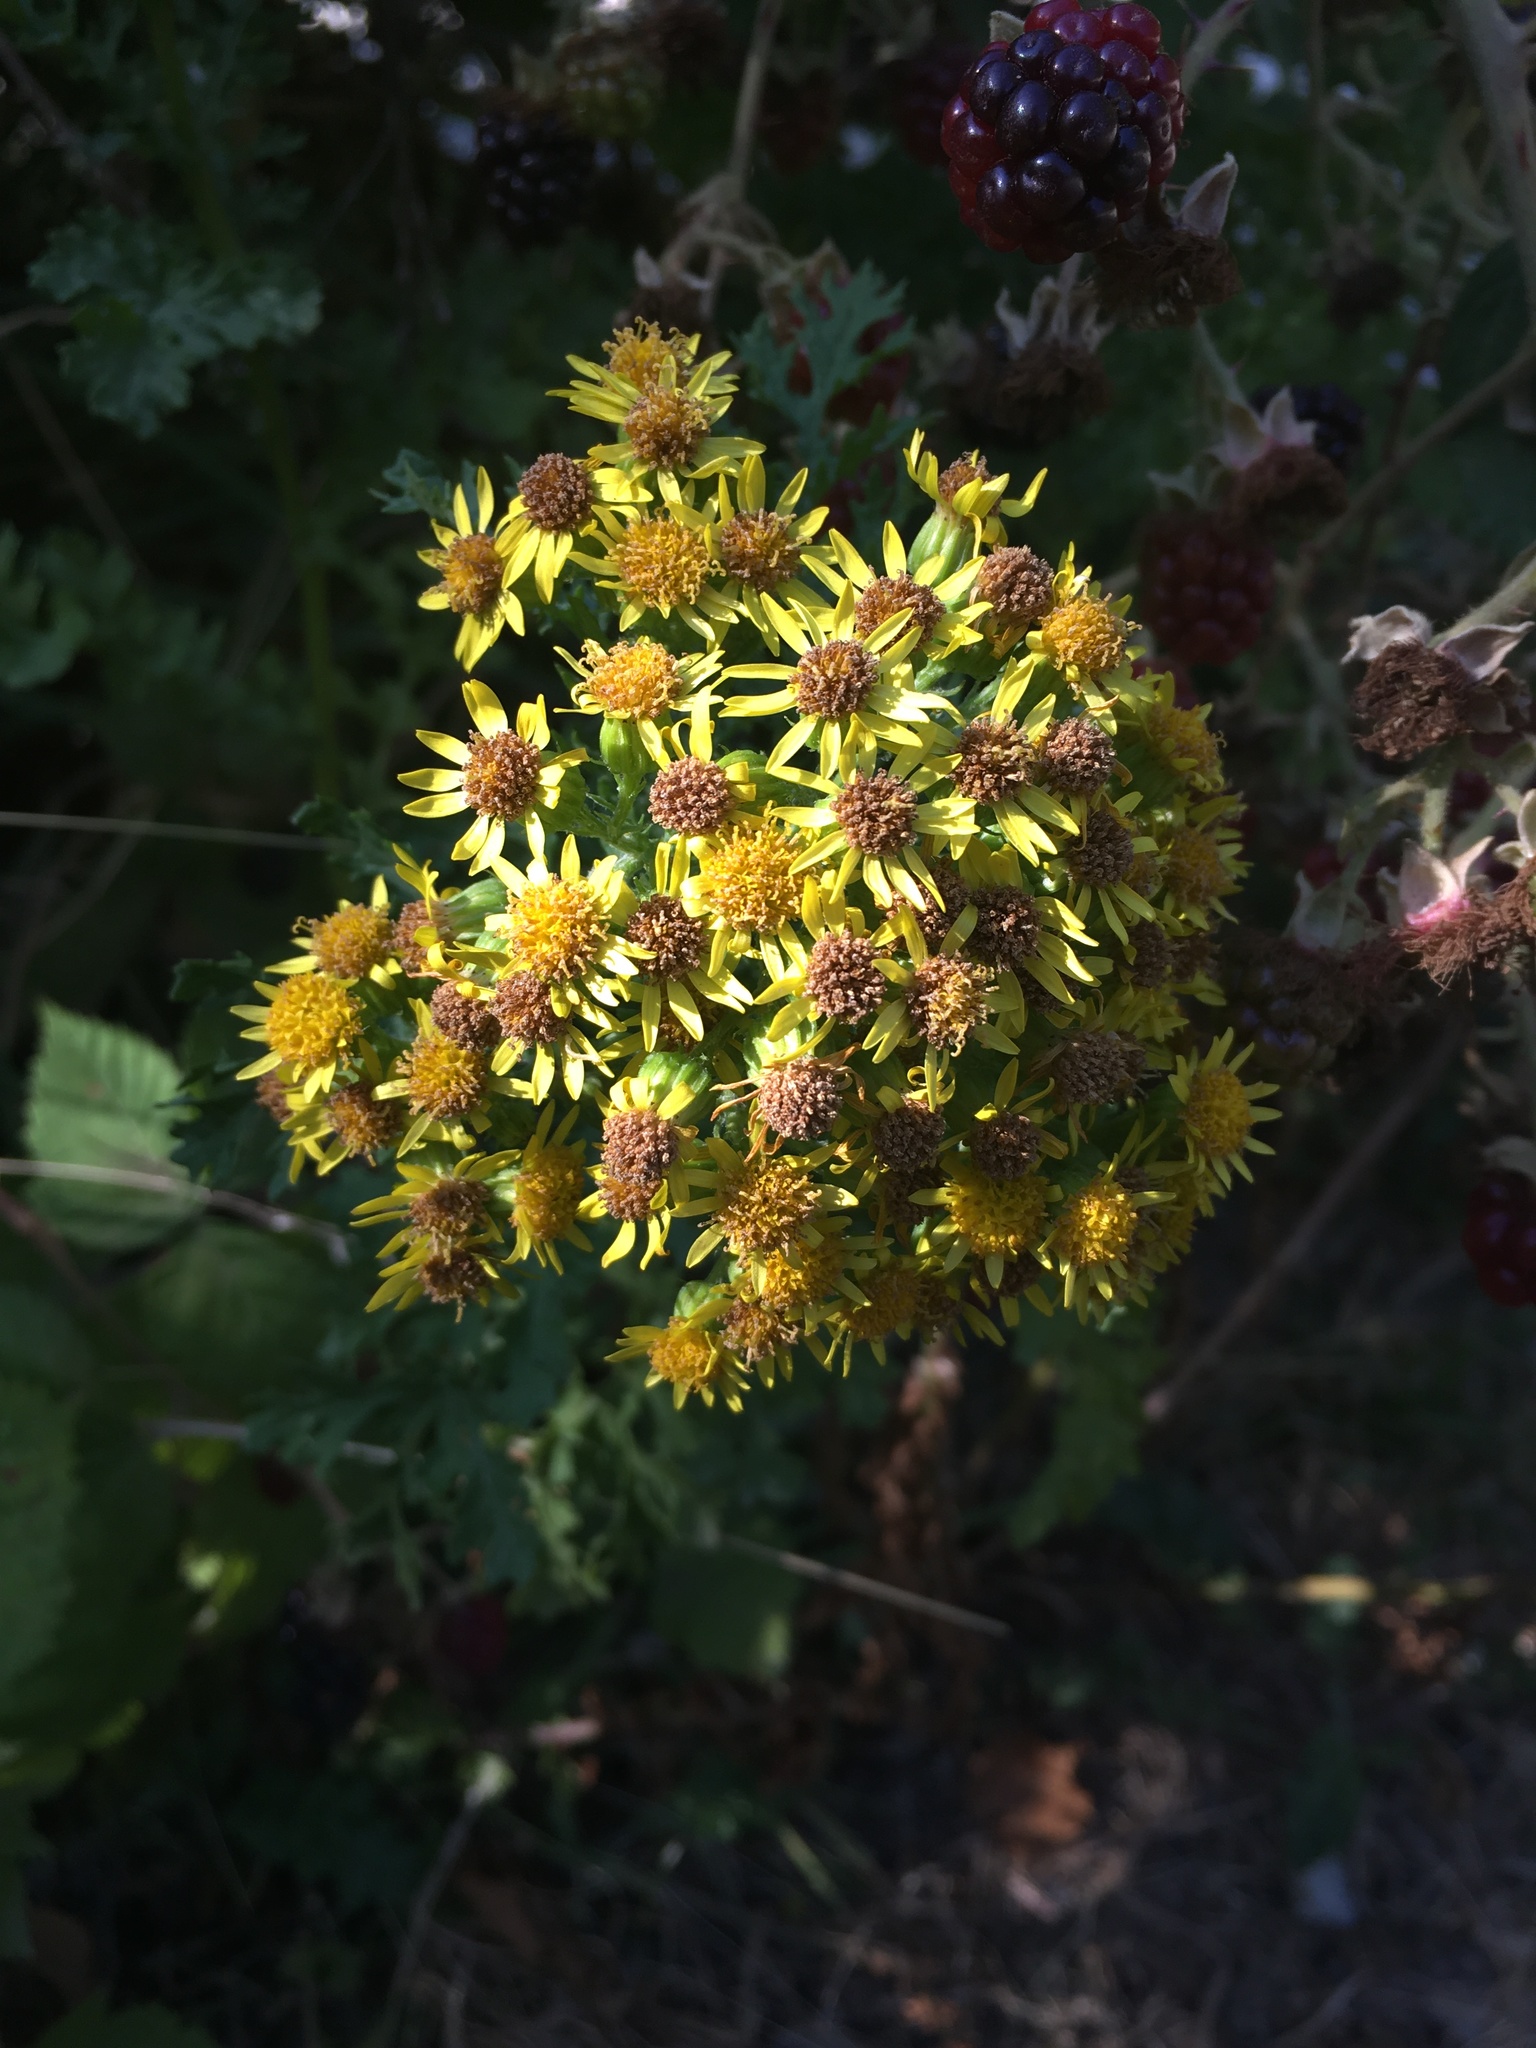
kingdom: Plantae
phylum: Tracheophyta
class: Magnoliopsida
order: Asterales
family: Asteraceae
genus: Jacobaea
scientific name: Jacobaea vulgaris
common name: Stinking willie
